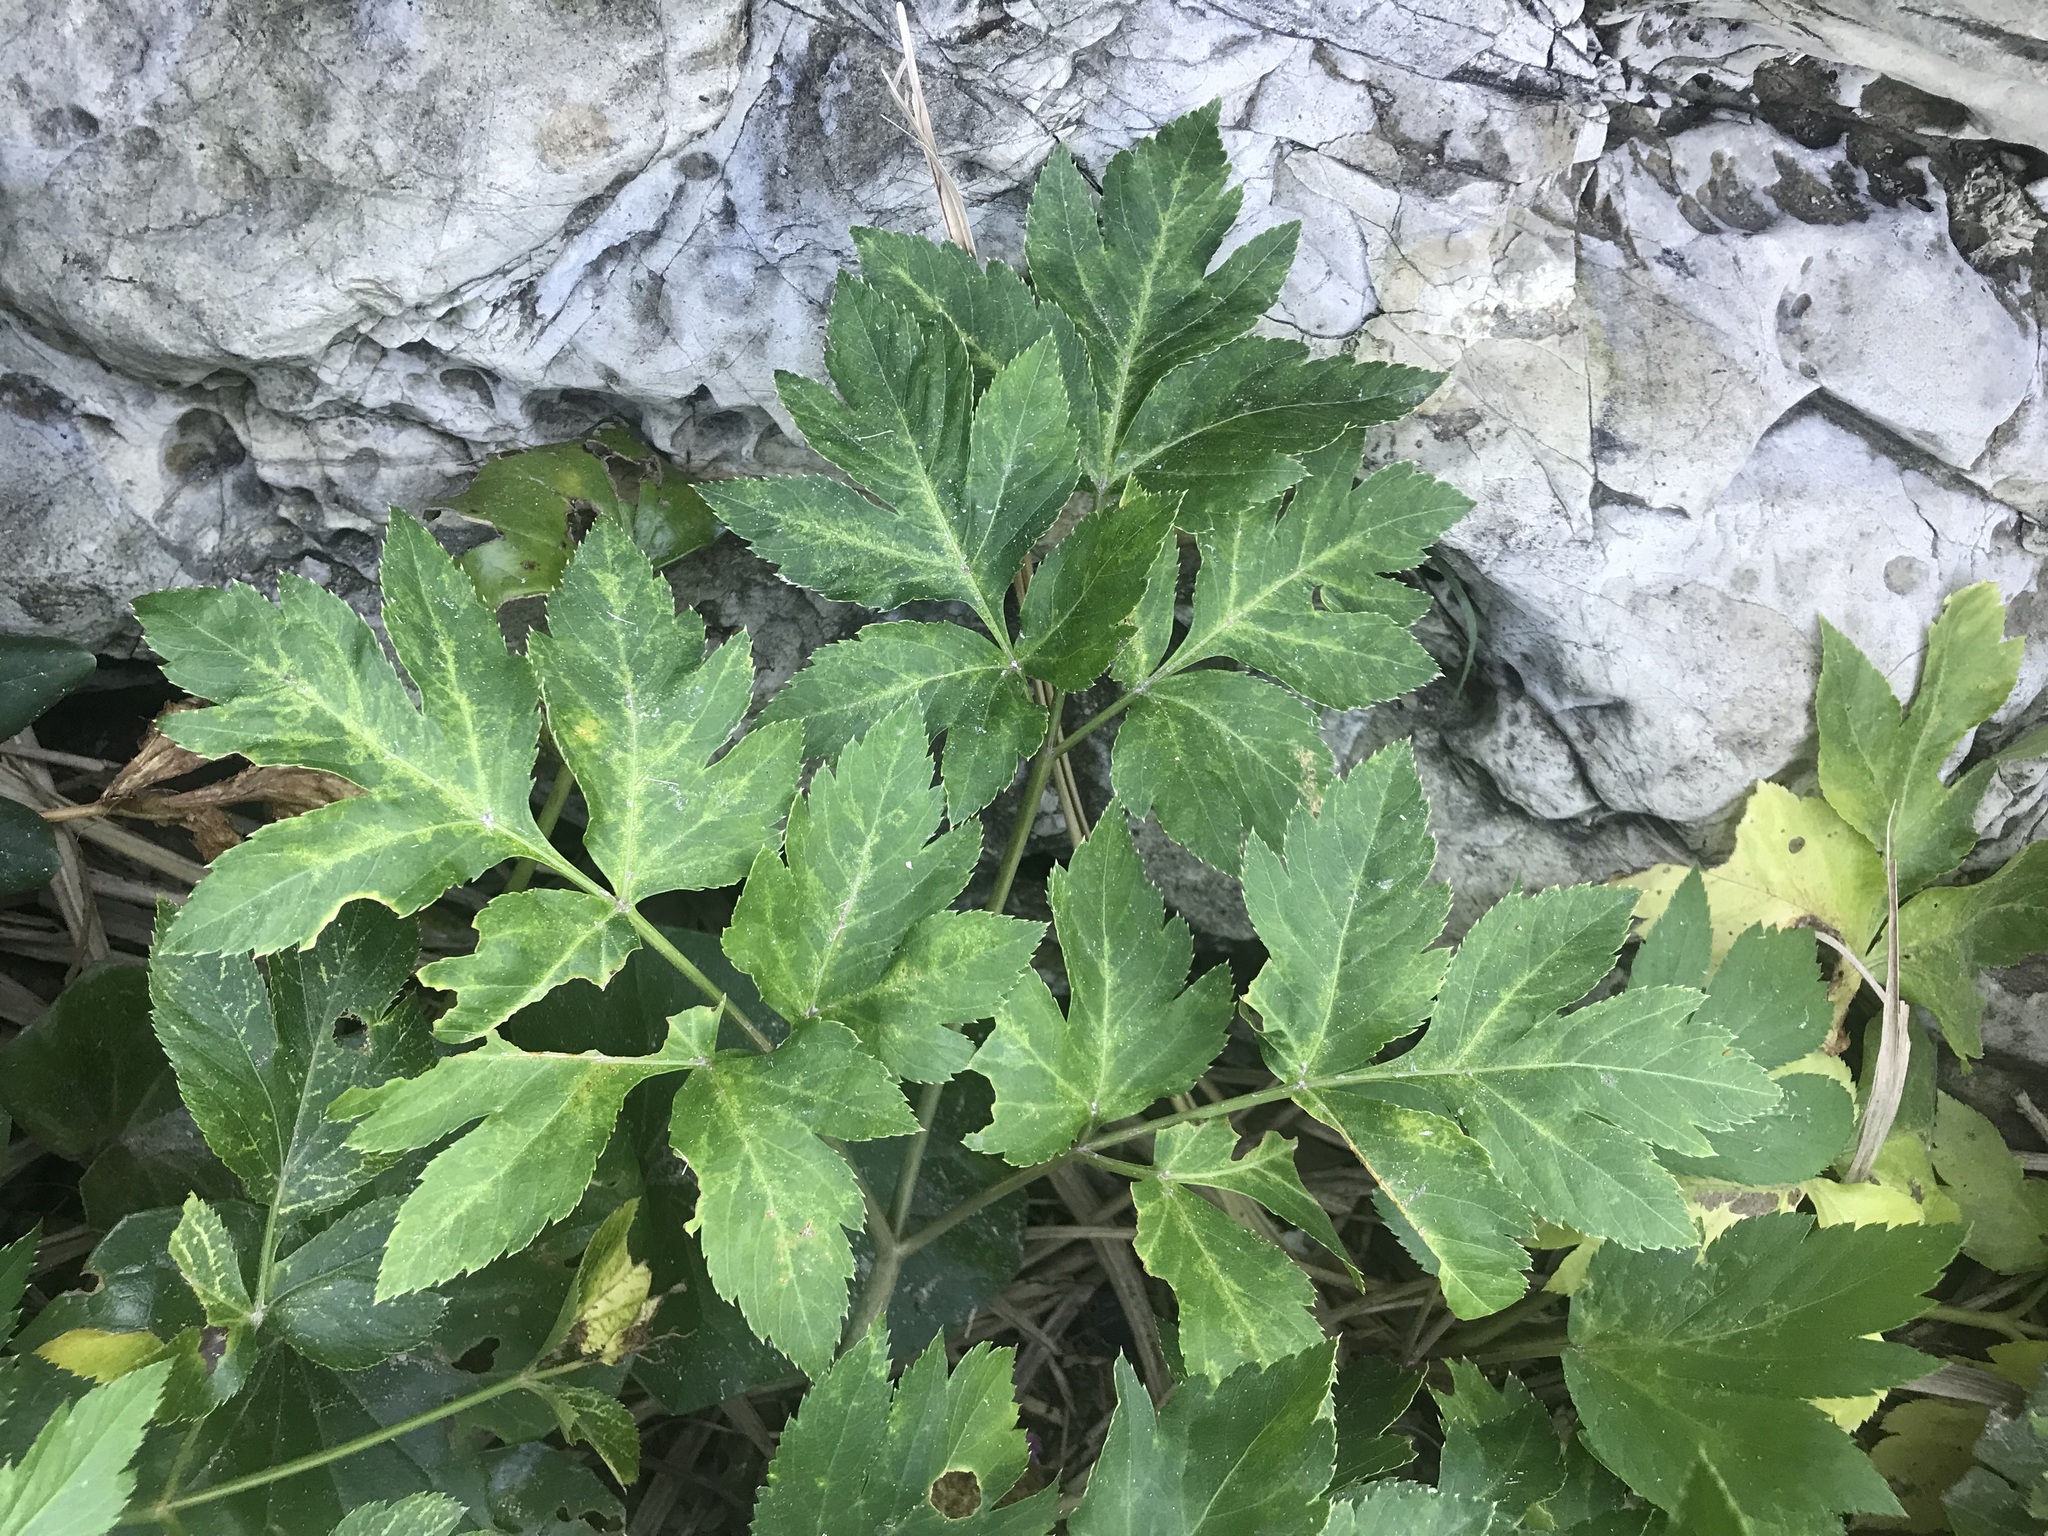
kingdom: Plantae
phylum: Tracheophyta
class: Magnoliopsida
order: Apiales
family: Apiaceae
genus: Angelica
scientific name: Angelica keiskei
